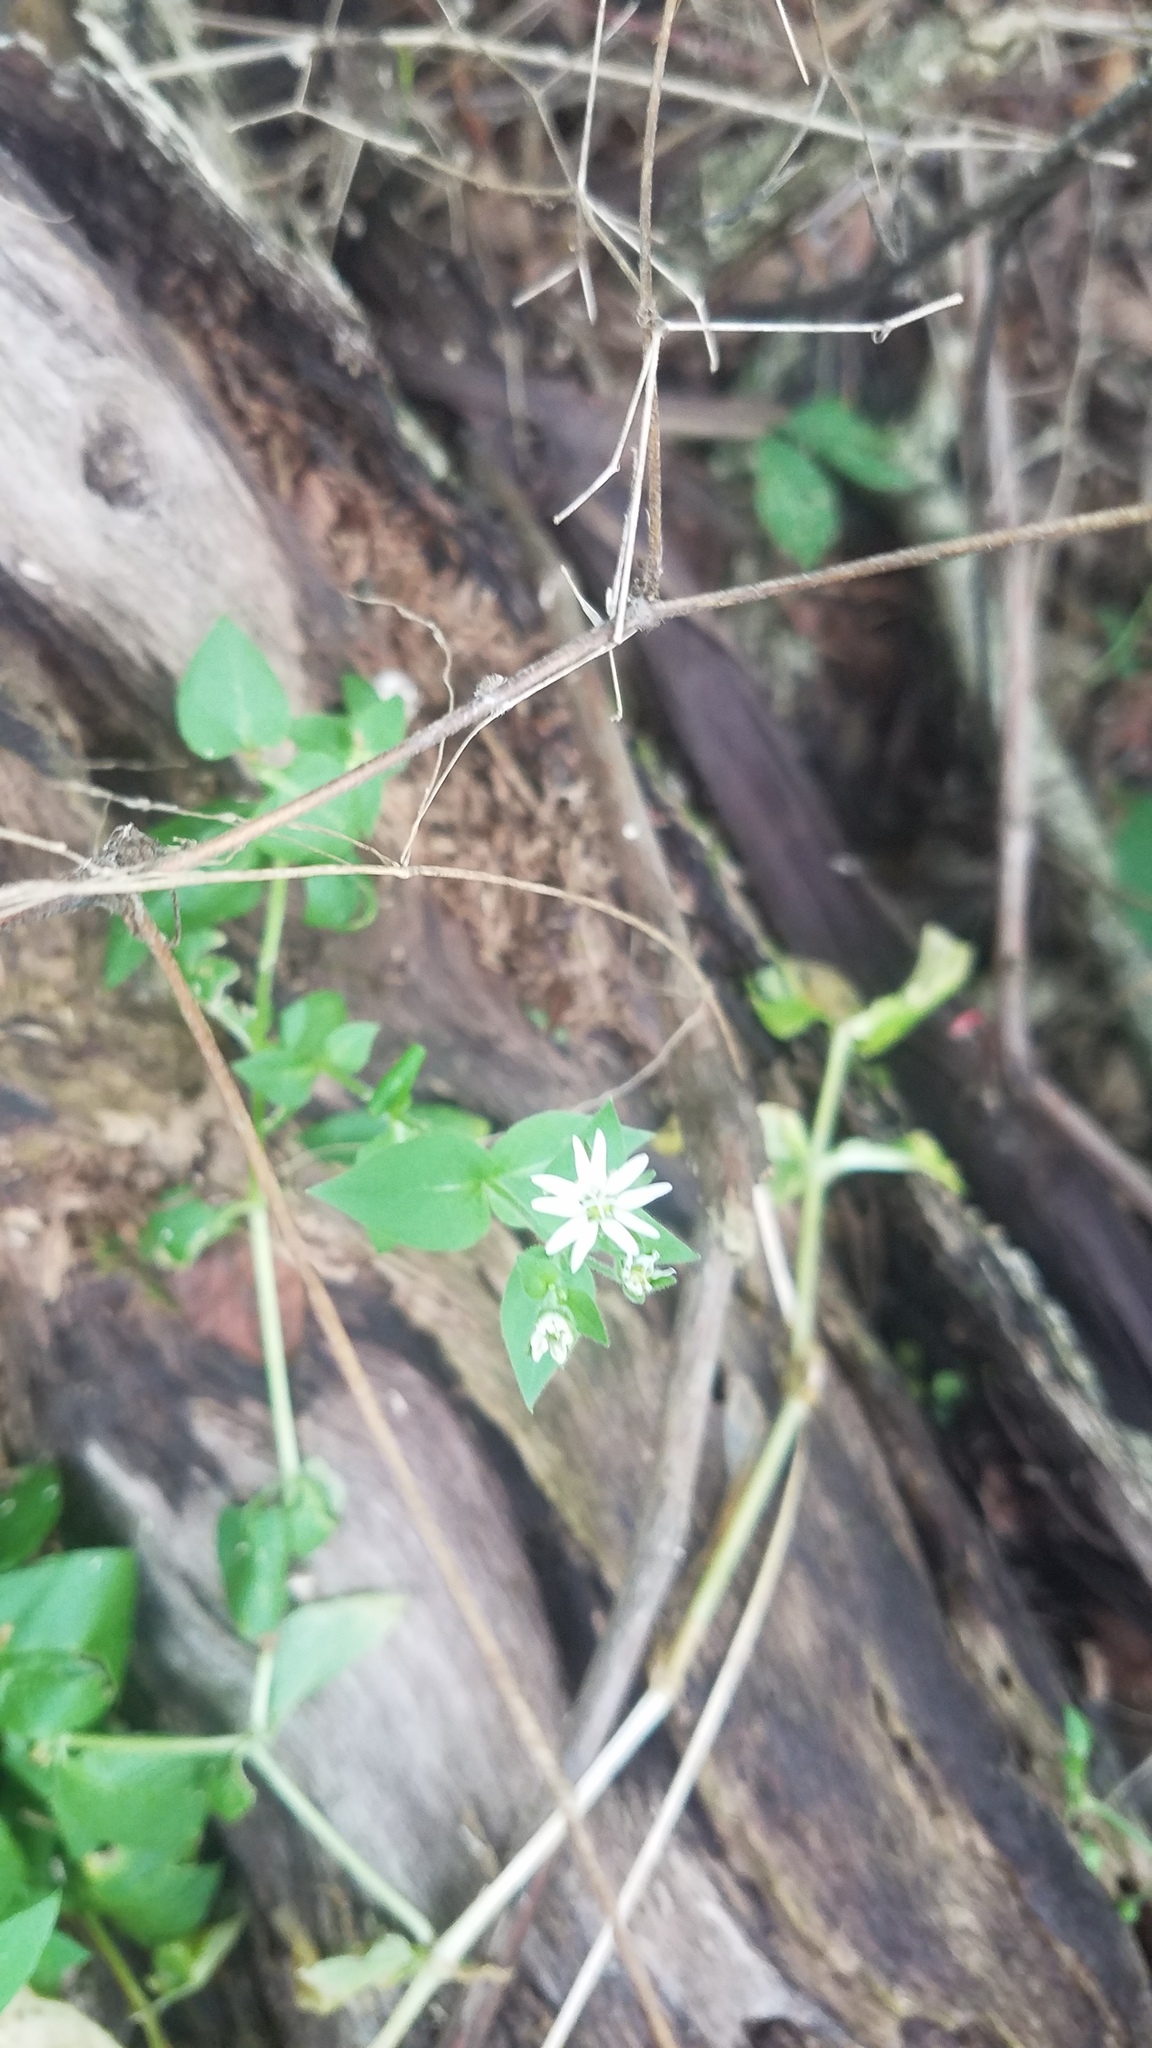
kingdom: Plantae
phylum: Tracheophyta
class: Magnoliopsida
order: Caryophyllales
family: Caryophyllaceae
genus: Stellaria
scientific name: Stellaria aquatica
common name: Water chickweed
